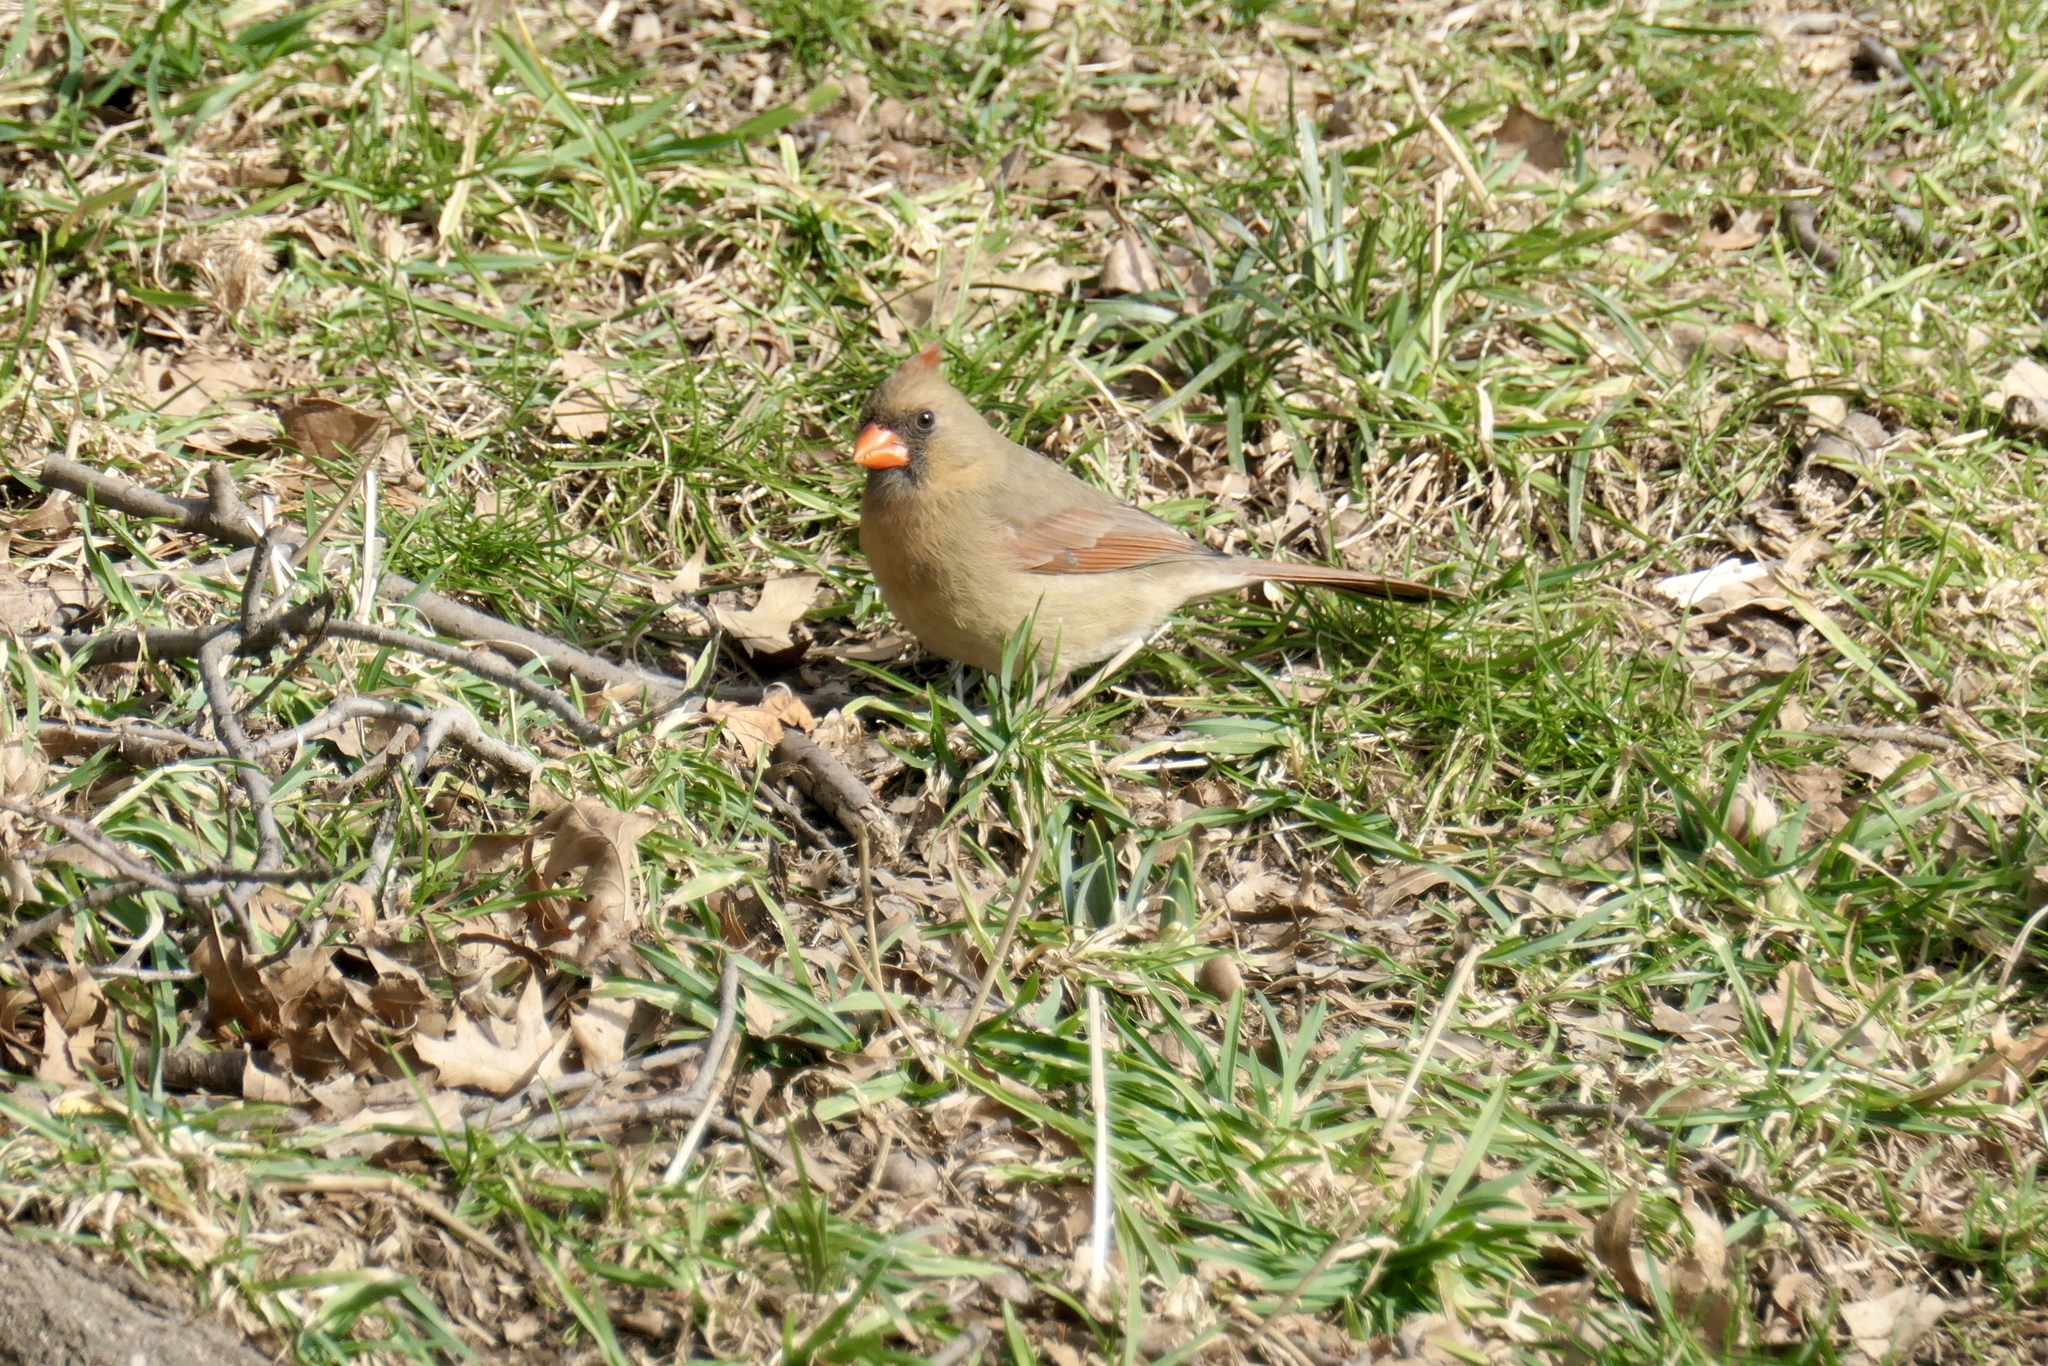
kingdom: Animalia
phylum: Chordata
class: Aves
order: Passeriformes
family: Cardinalidae
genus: Cardinalis
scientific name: Cardinalis cardinalis
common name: Northern cardinal
